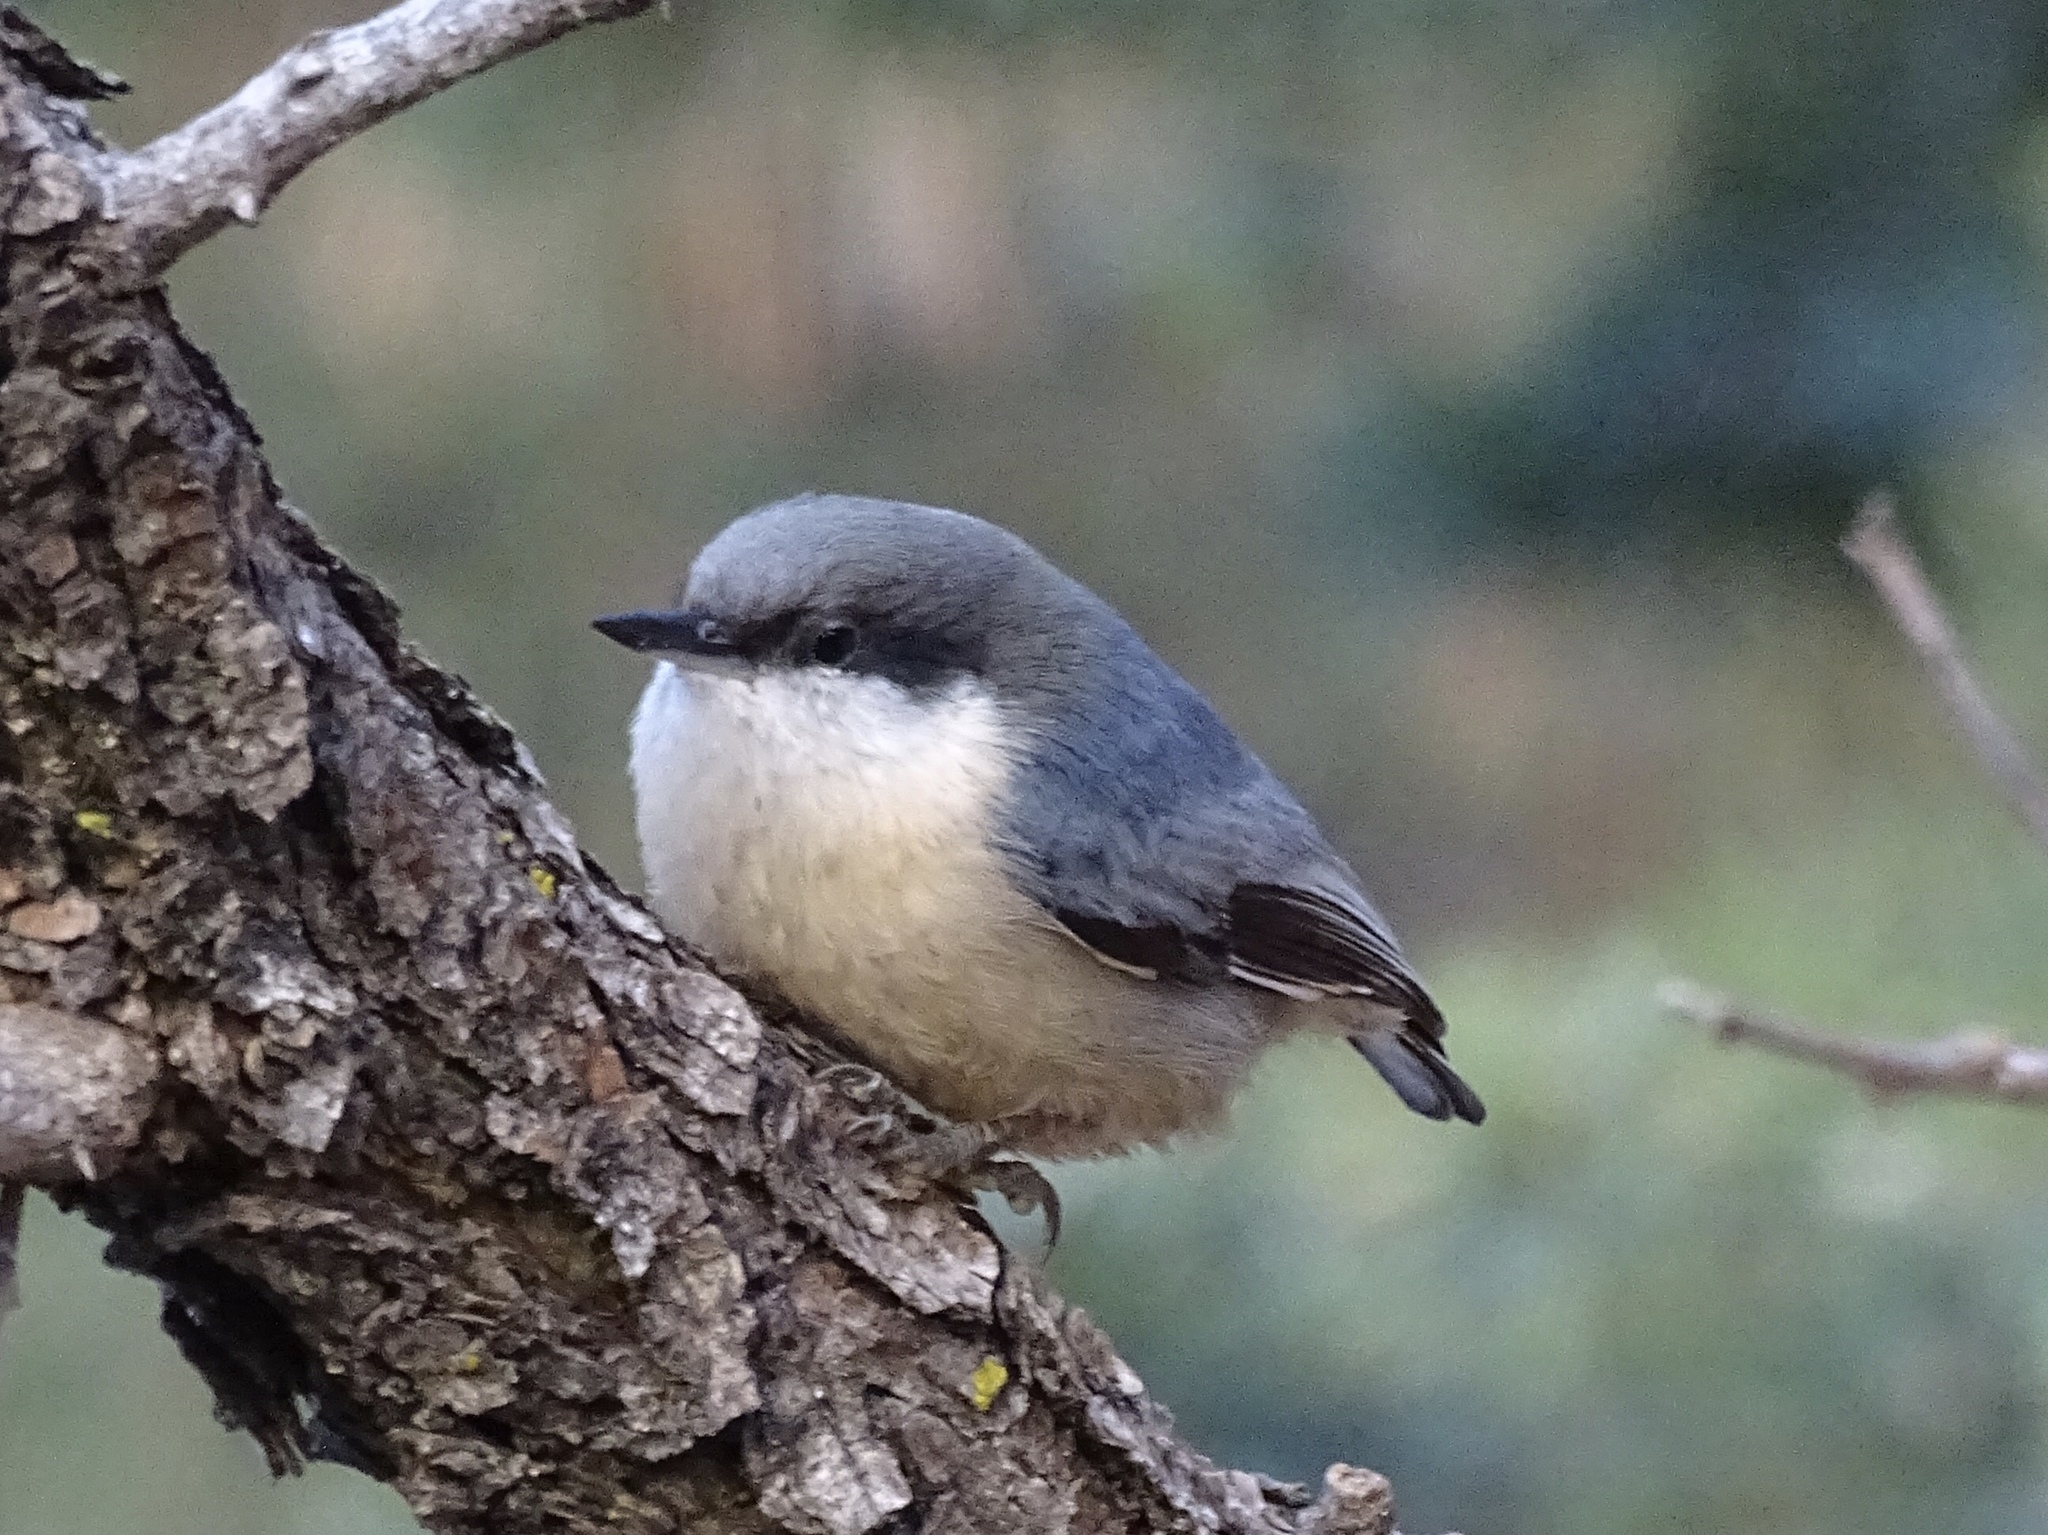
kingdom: Animalia
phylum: Chordata
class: Aves
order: Passeriformes
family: Sittidae
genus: Sitta
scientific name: Sitta pygmaea
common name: Pygmy nuthatch
